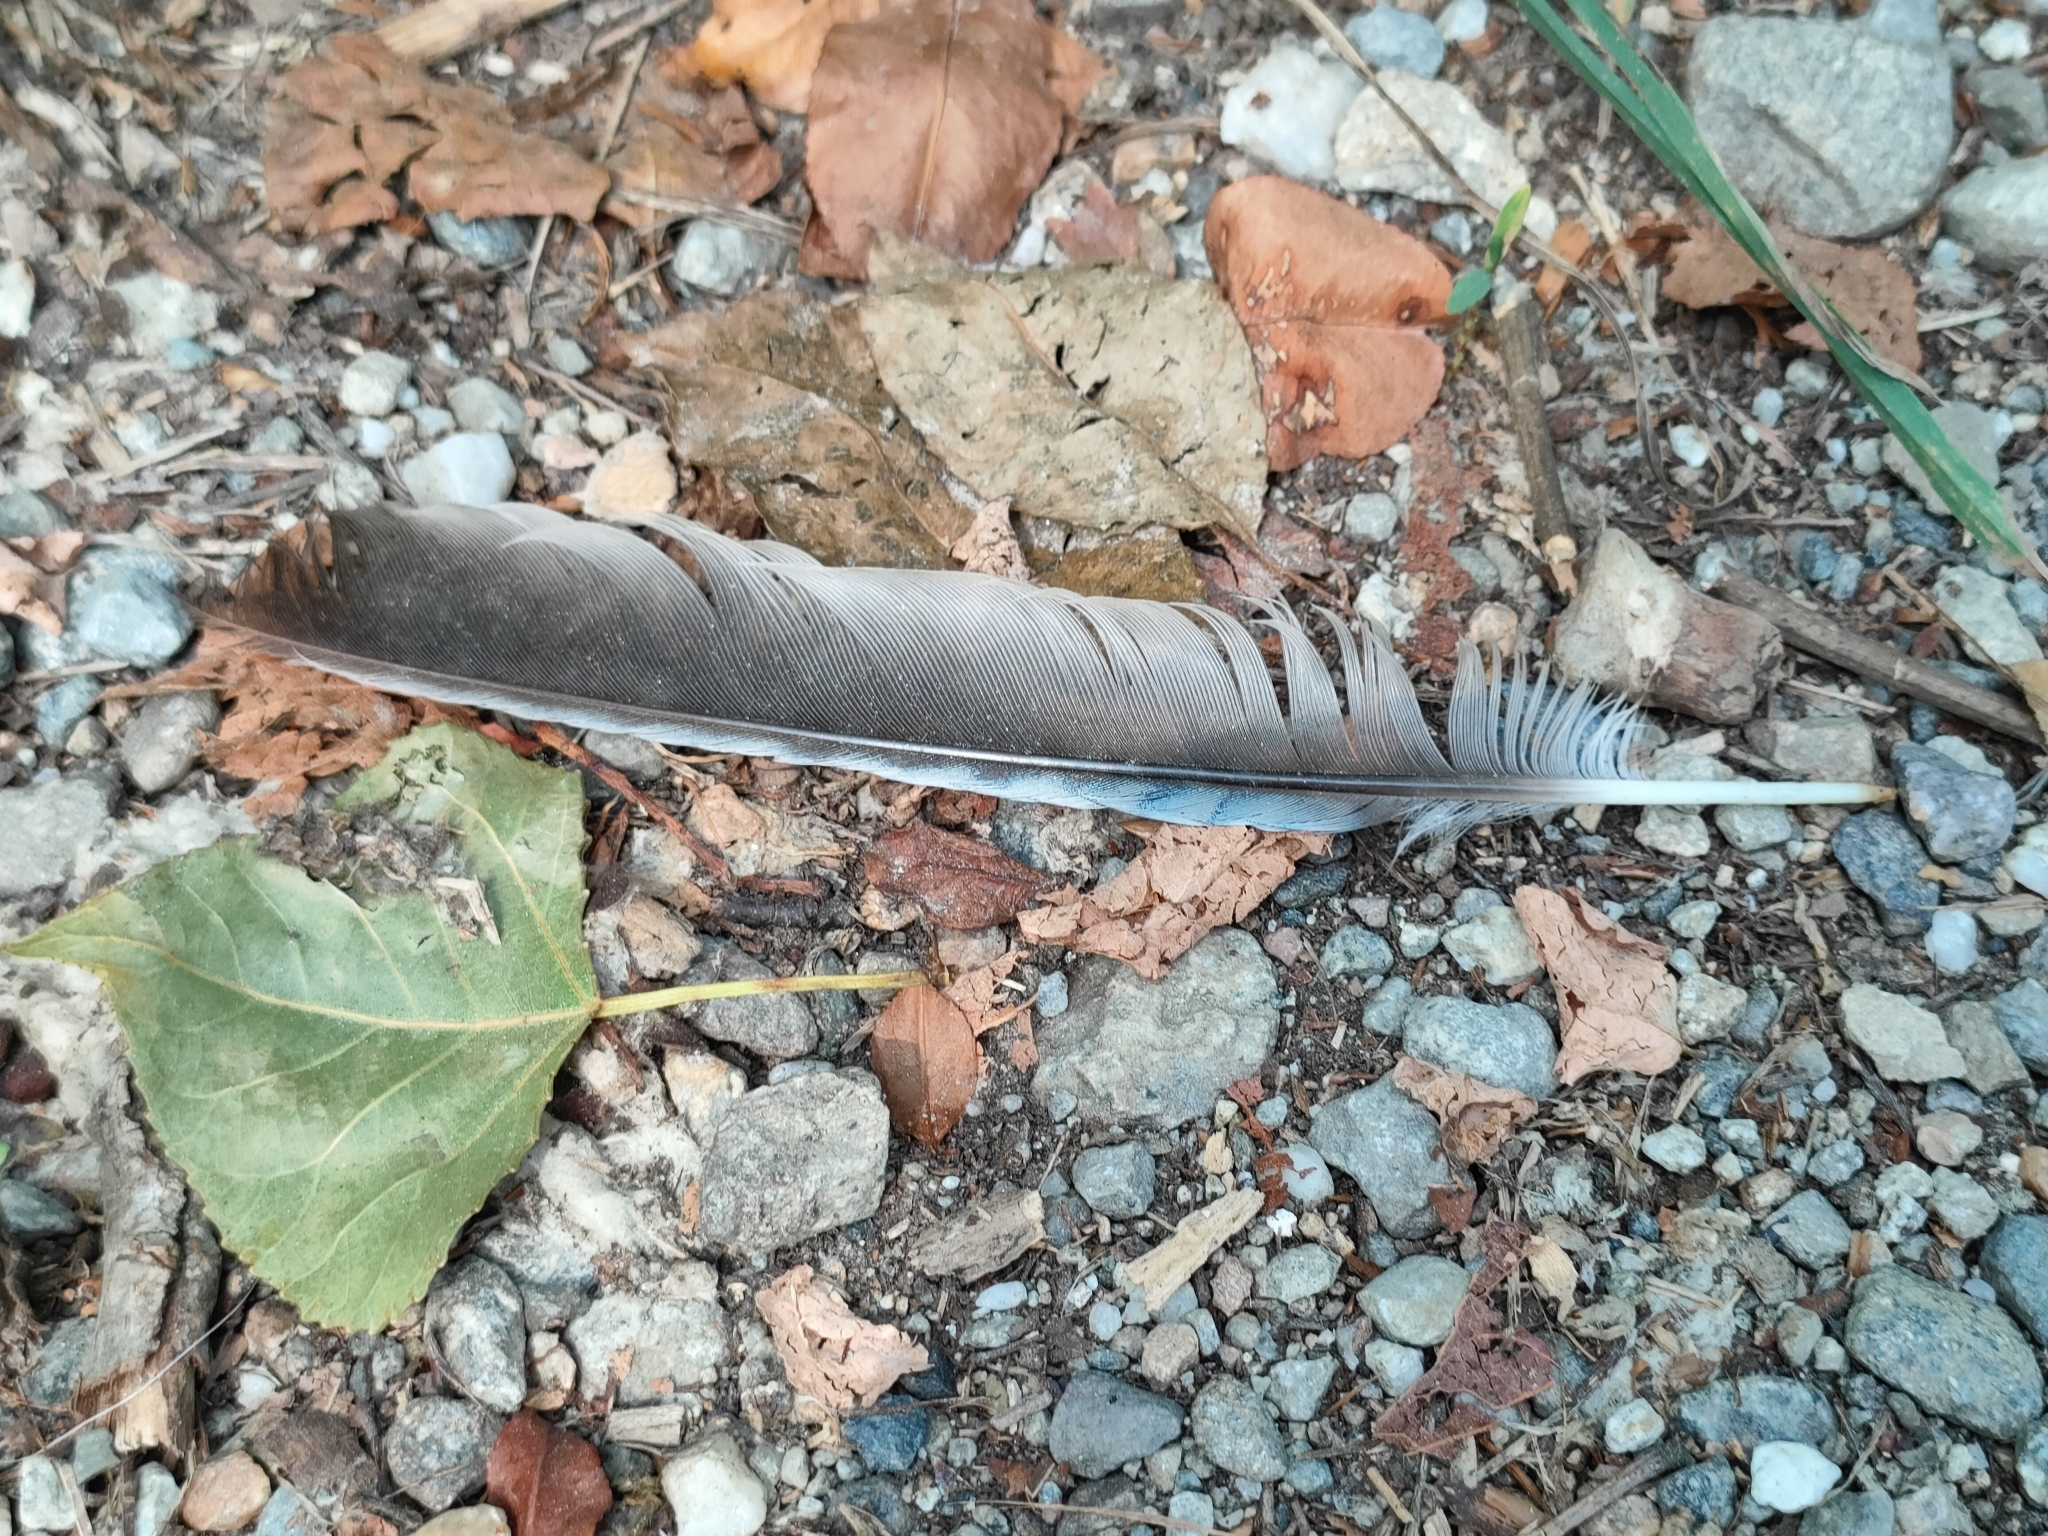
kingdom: Animalia
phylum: Chordata
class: Aves
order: Passeriformes
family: Corvidae
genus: Garrulus
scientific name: Garrulus glandarius
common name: Eurasian jay
